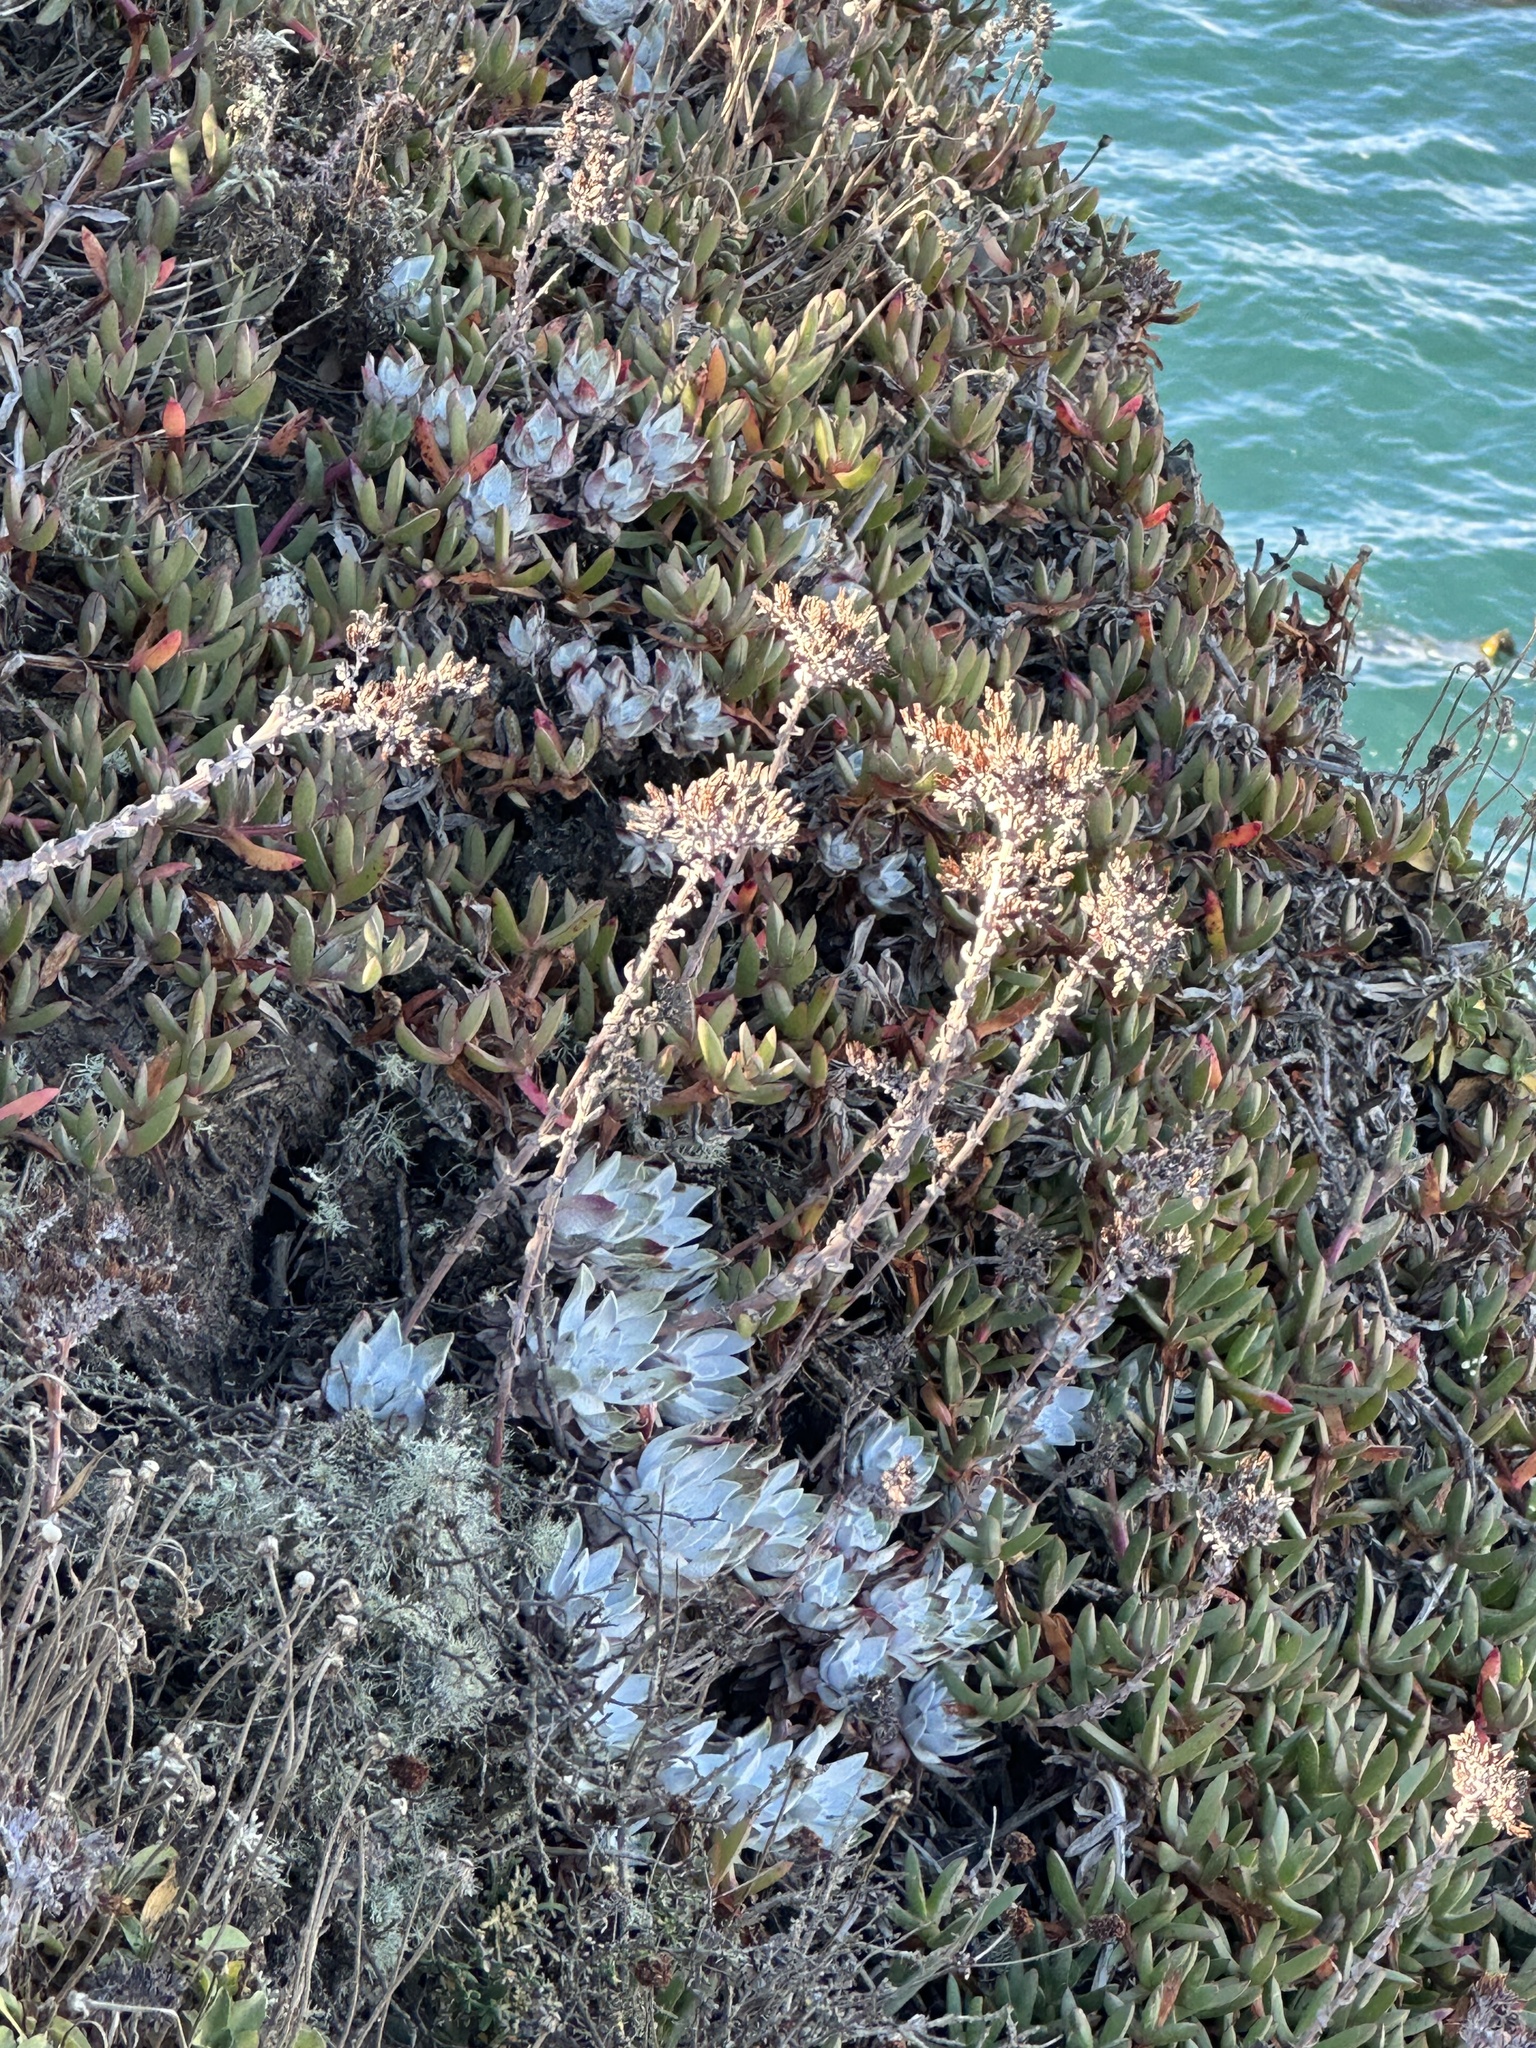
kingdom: Plantae
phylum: Tracheophyta
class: Magnoliopsida
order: Saxifragales
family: Crassulaceae
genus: Dudleya
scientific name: Dudleya farinosa
